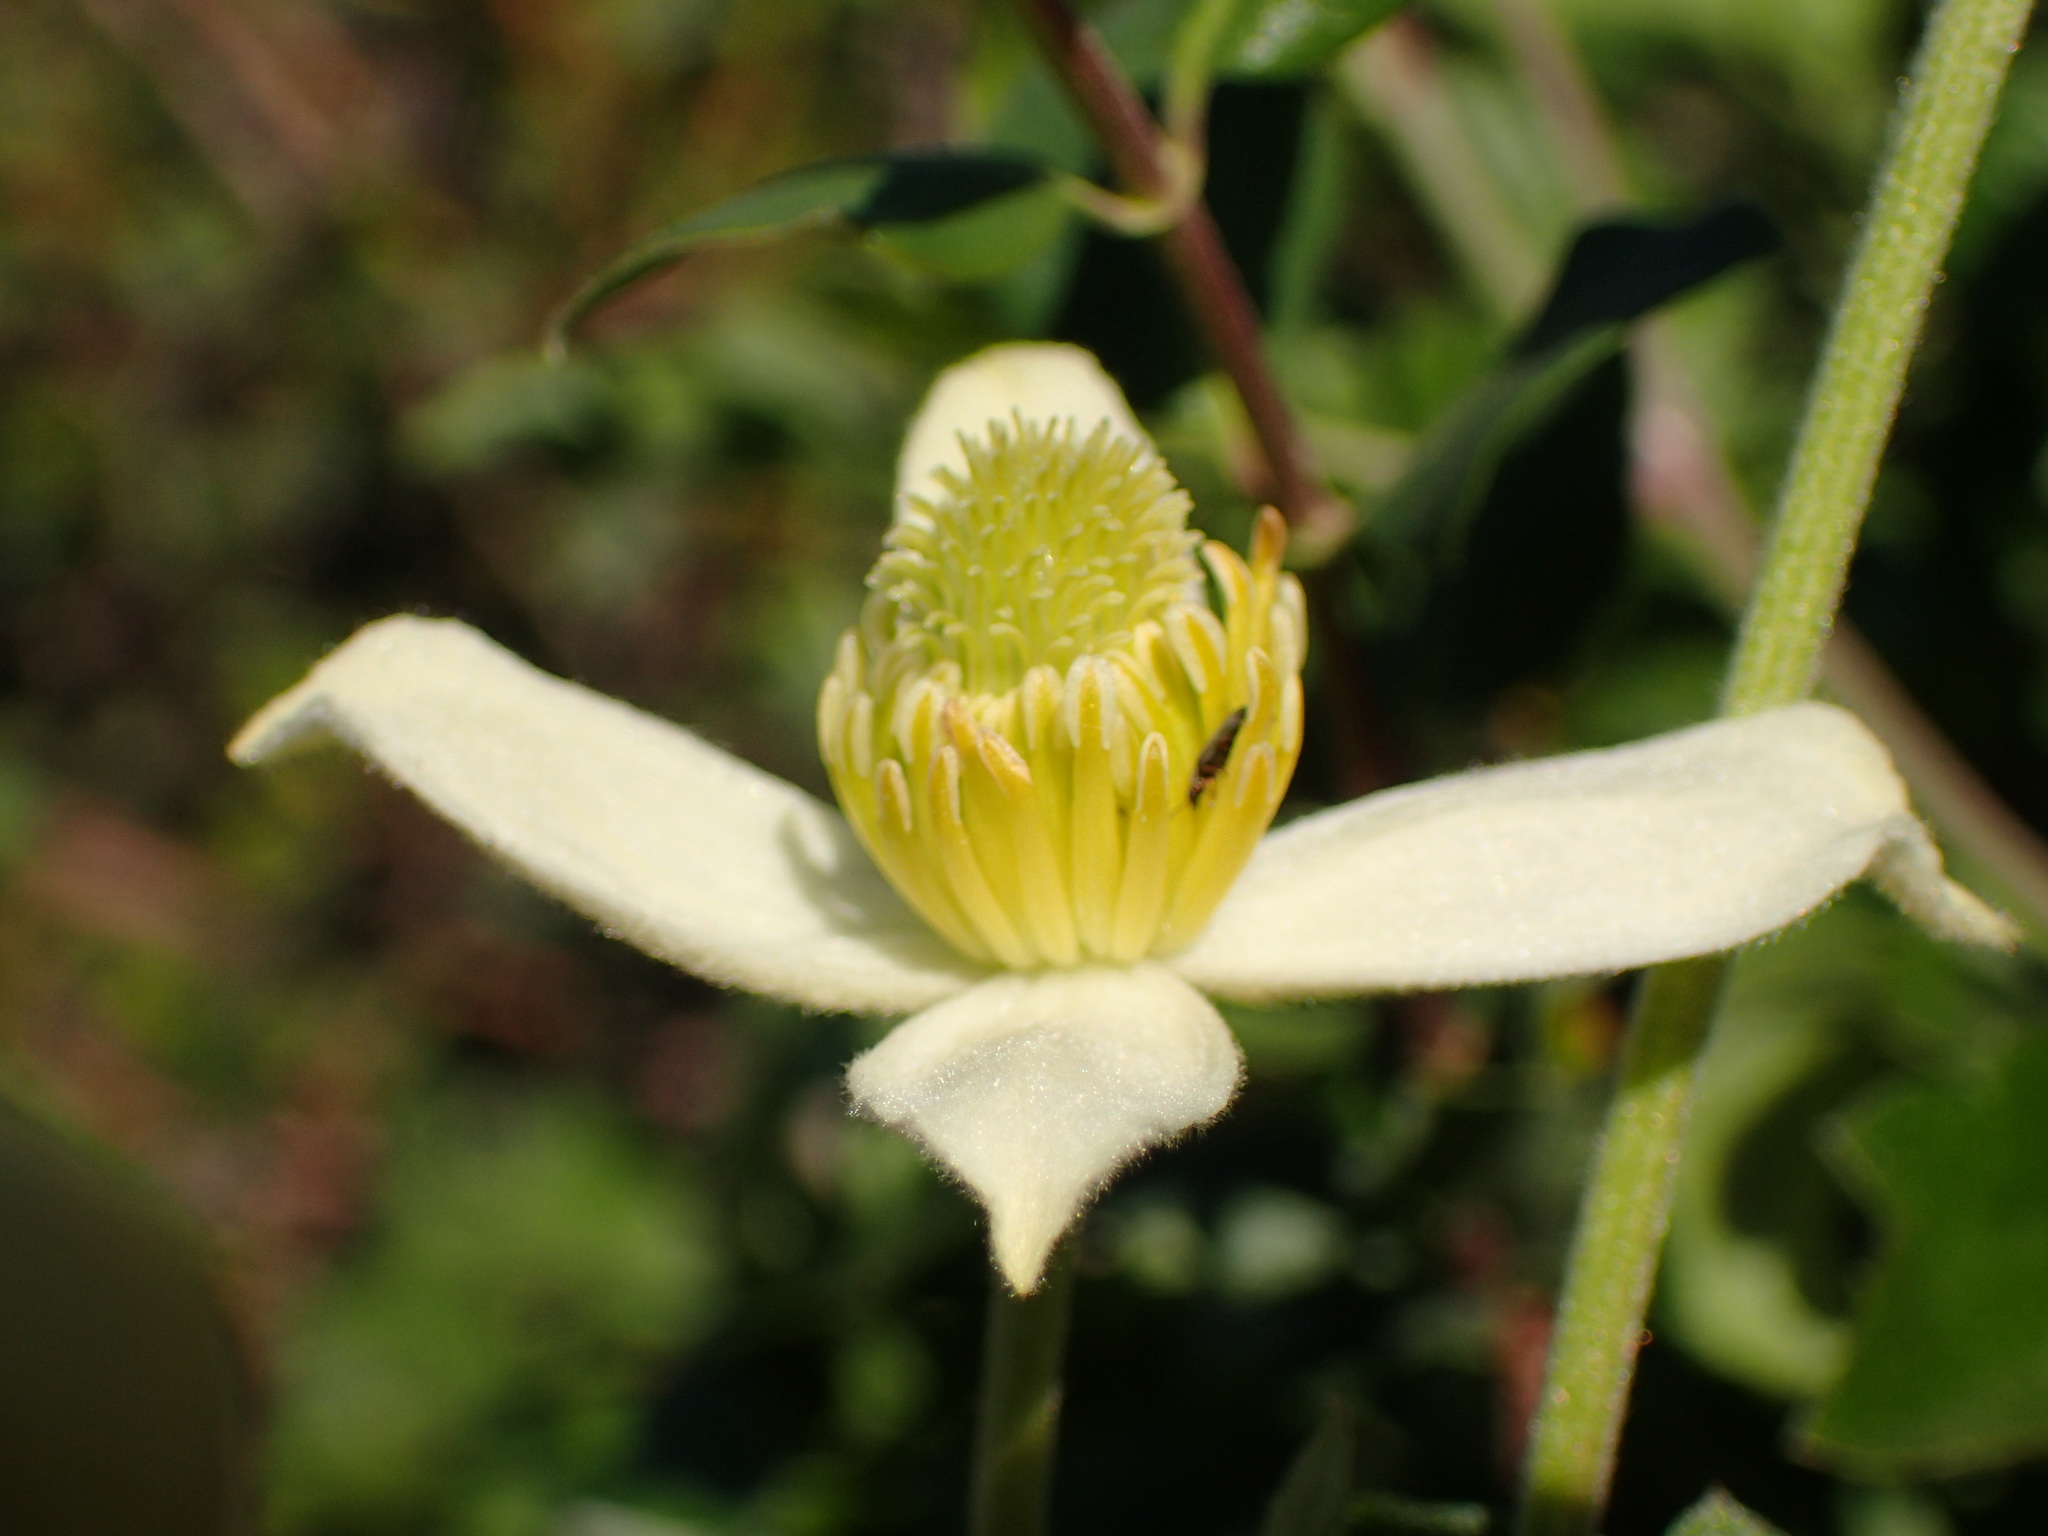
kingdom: Plantae
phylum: Tracheophyta
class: Magnoliopsida
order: Ranunculales
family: Ranunculaceae
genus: Clematis
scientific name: Clematis lasiantha
